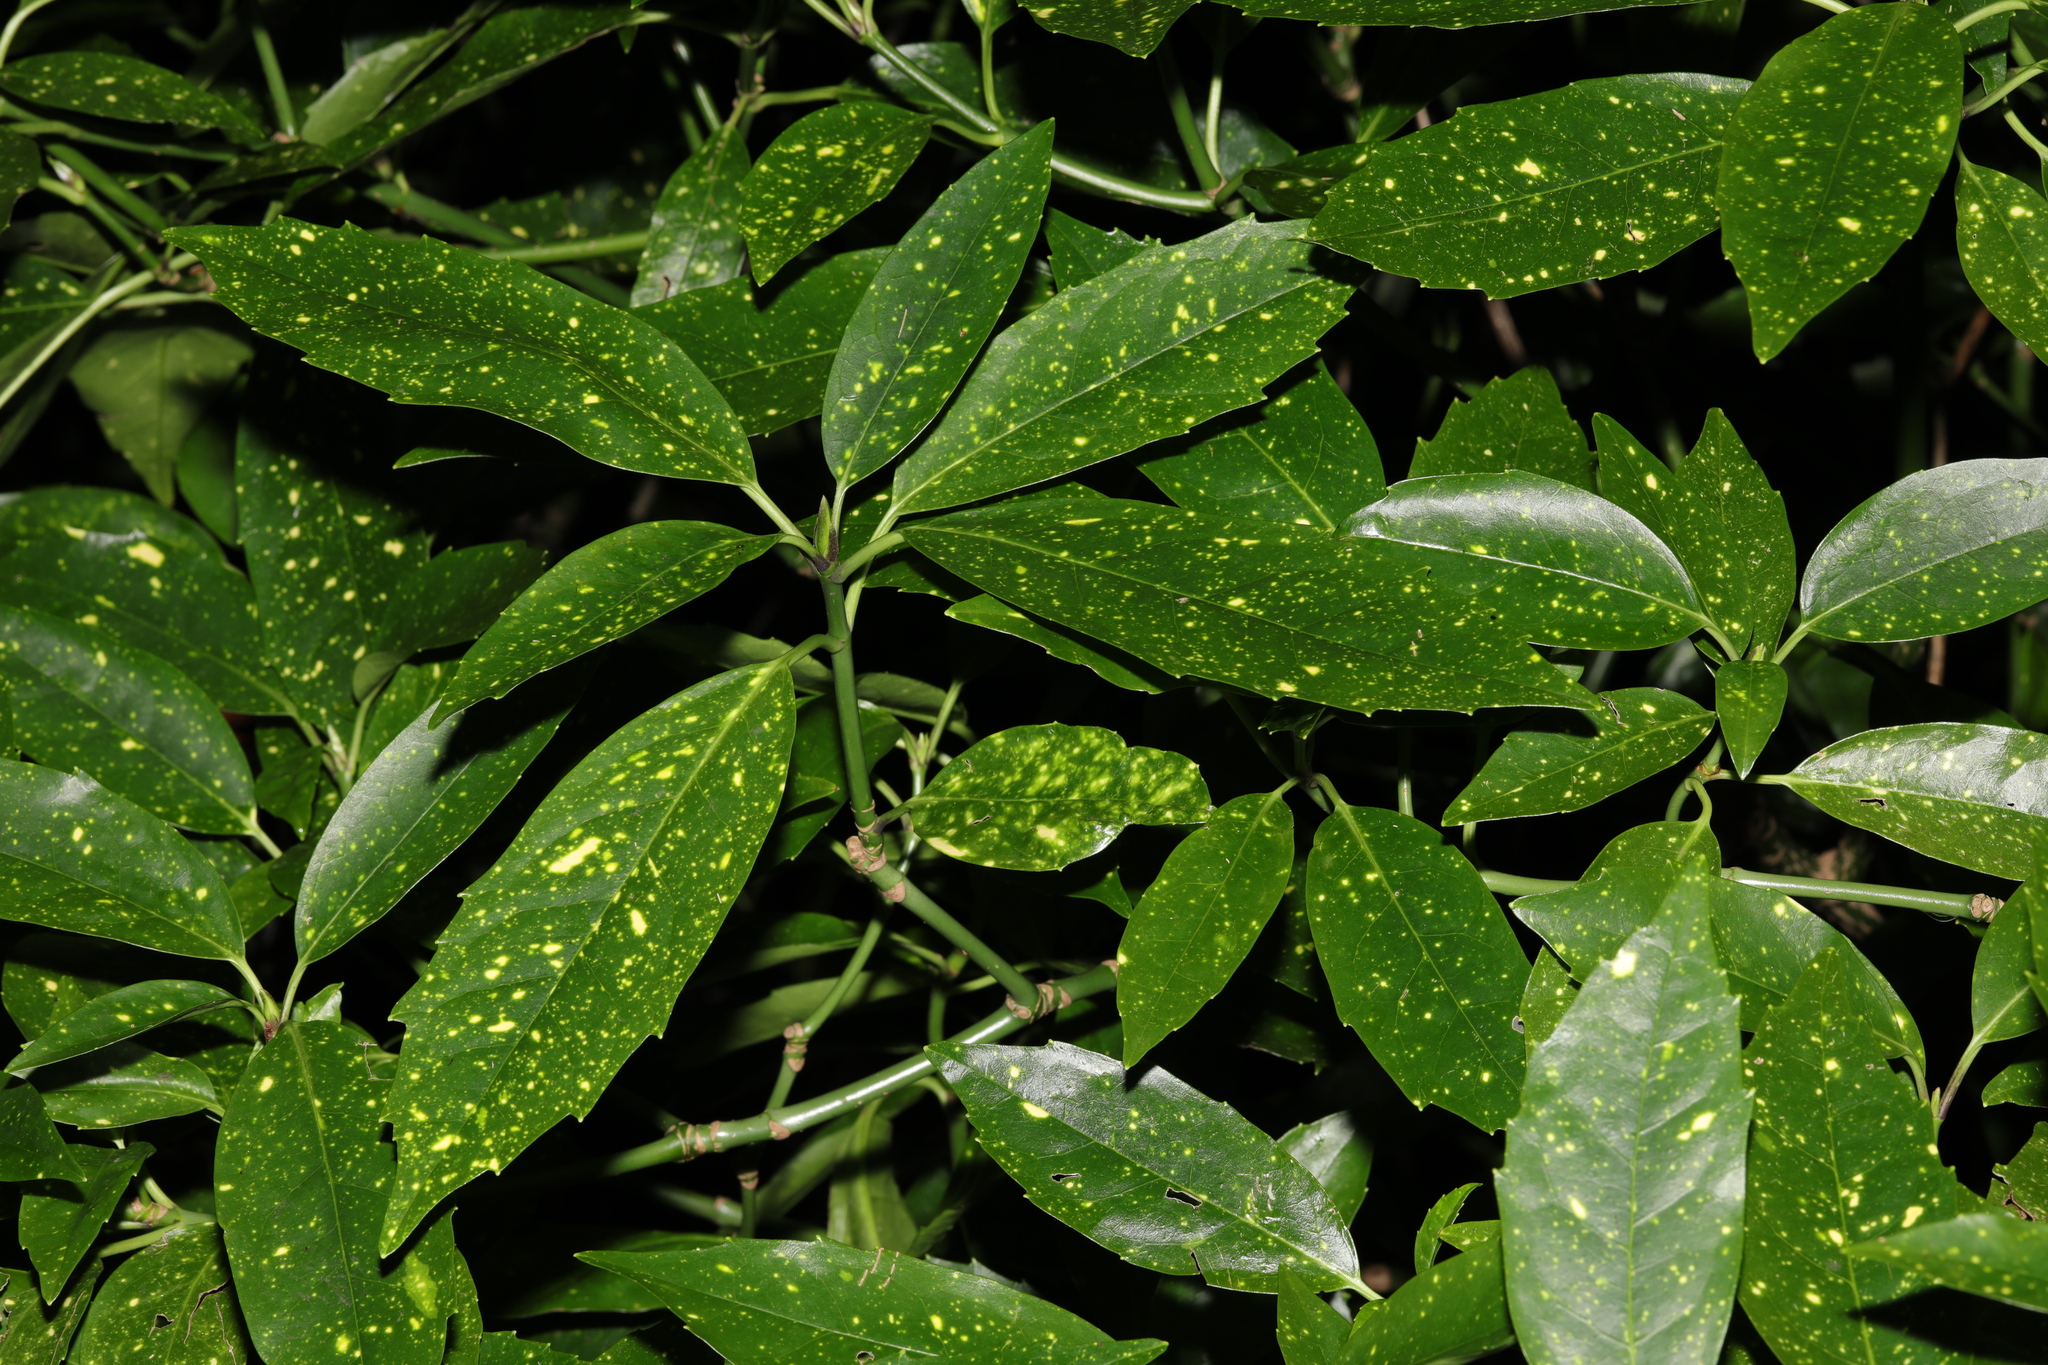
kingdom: Plantae
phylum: Tracheophyta
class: Magnoliopsida
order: Garryales
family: Garryaceae
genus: Aucuba
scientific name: Aucuba japonica
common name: Spotted-laurel
